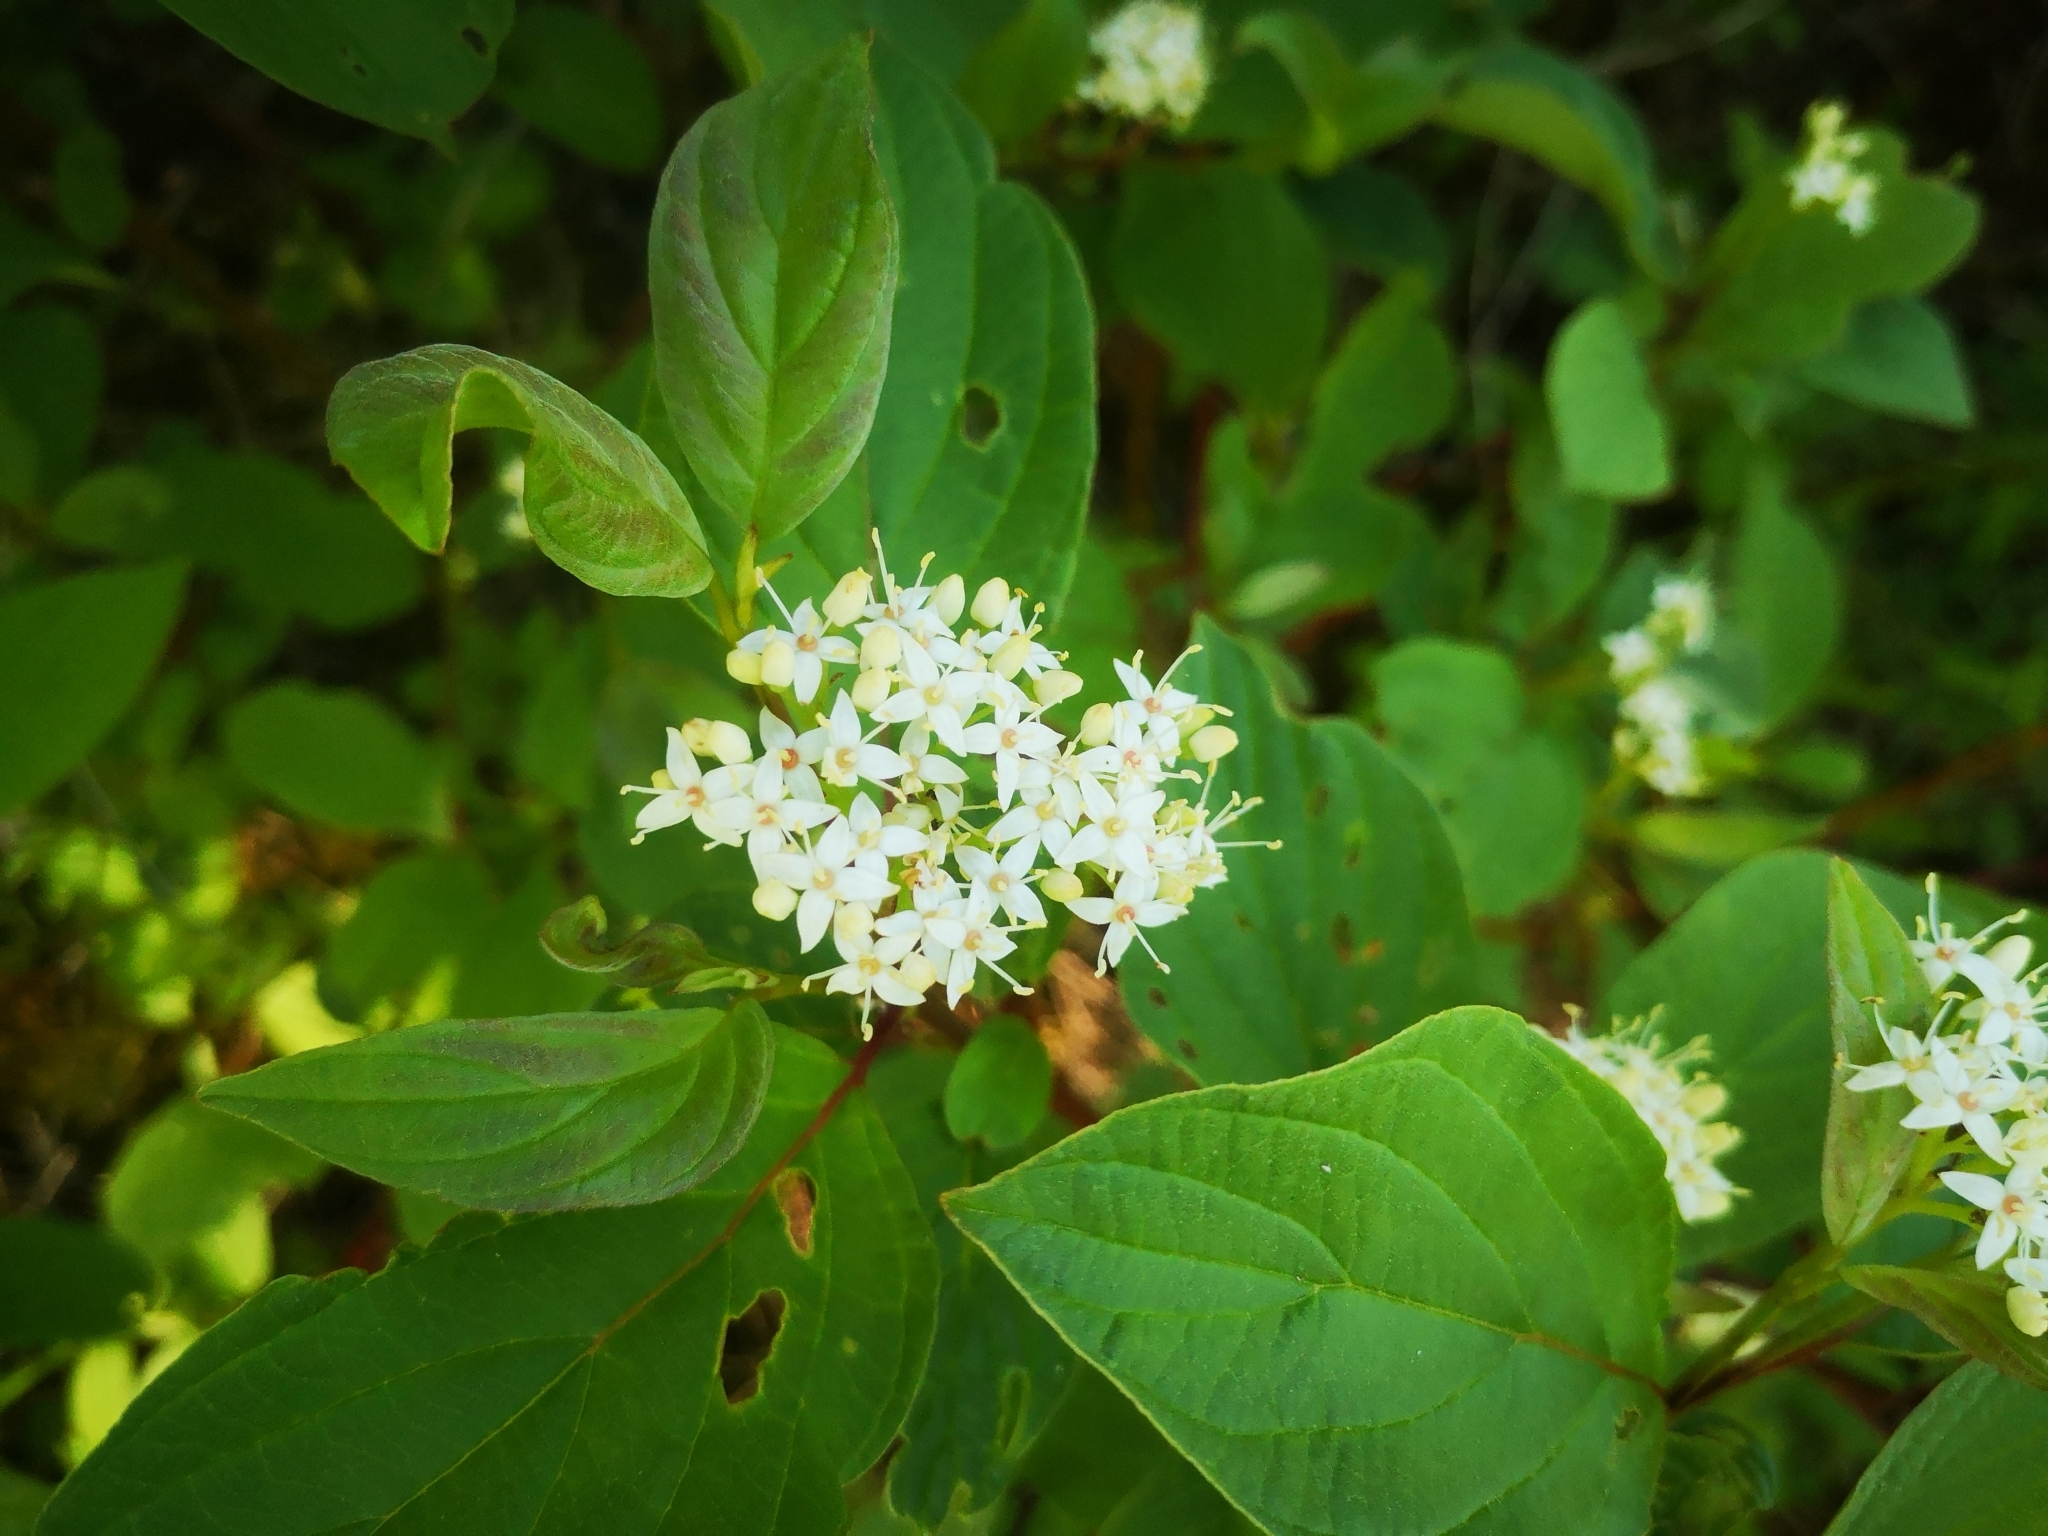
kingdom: Plantae
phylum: Tracheophyta
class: Magnoliopsida
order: Cornales
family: Cornaceae
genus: Cornus
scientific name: Cornus sericea
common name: Red-osier dogwood
